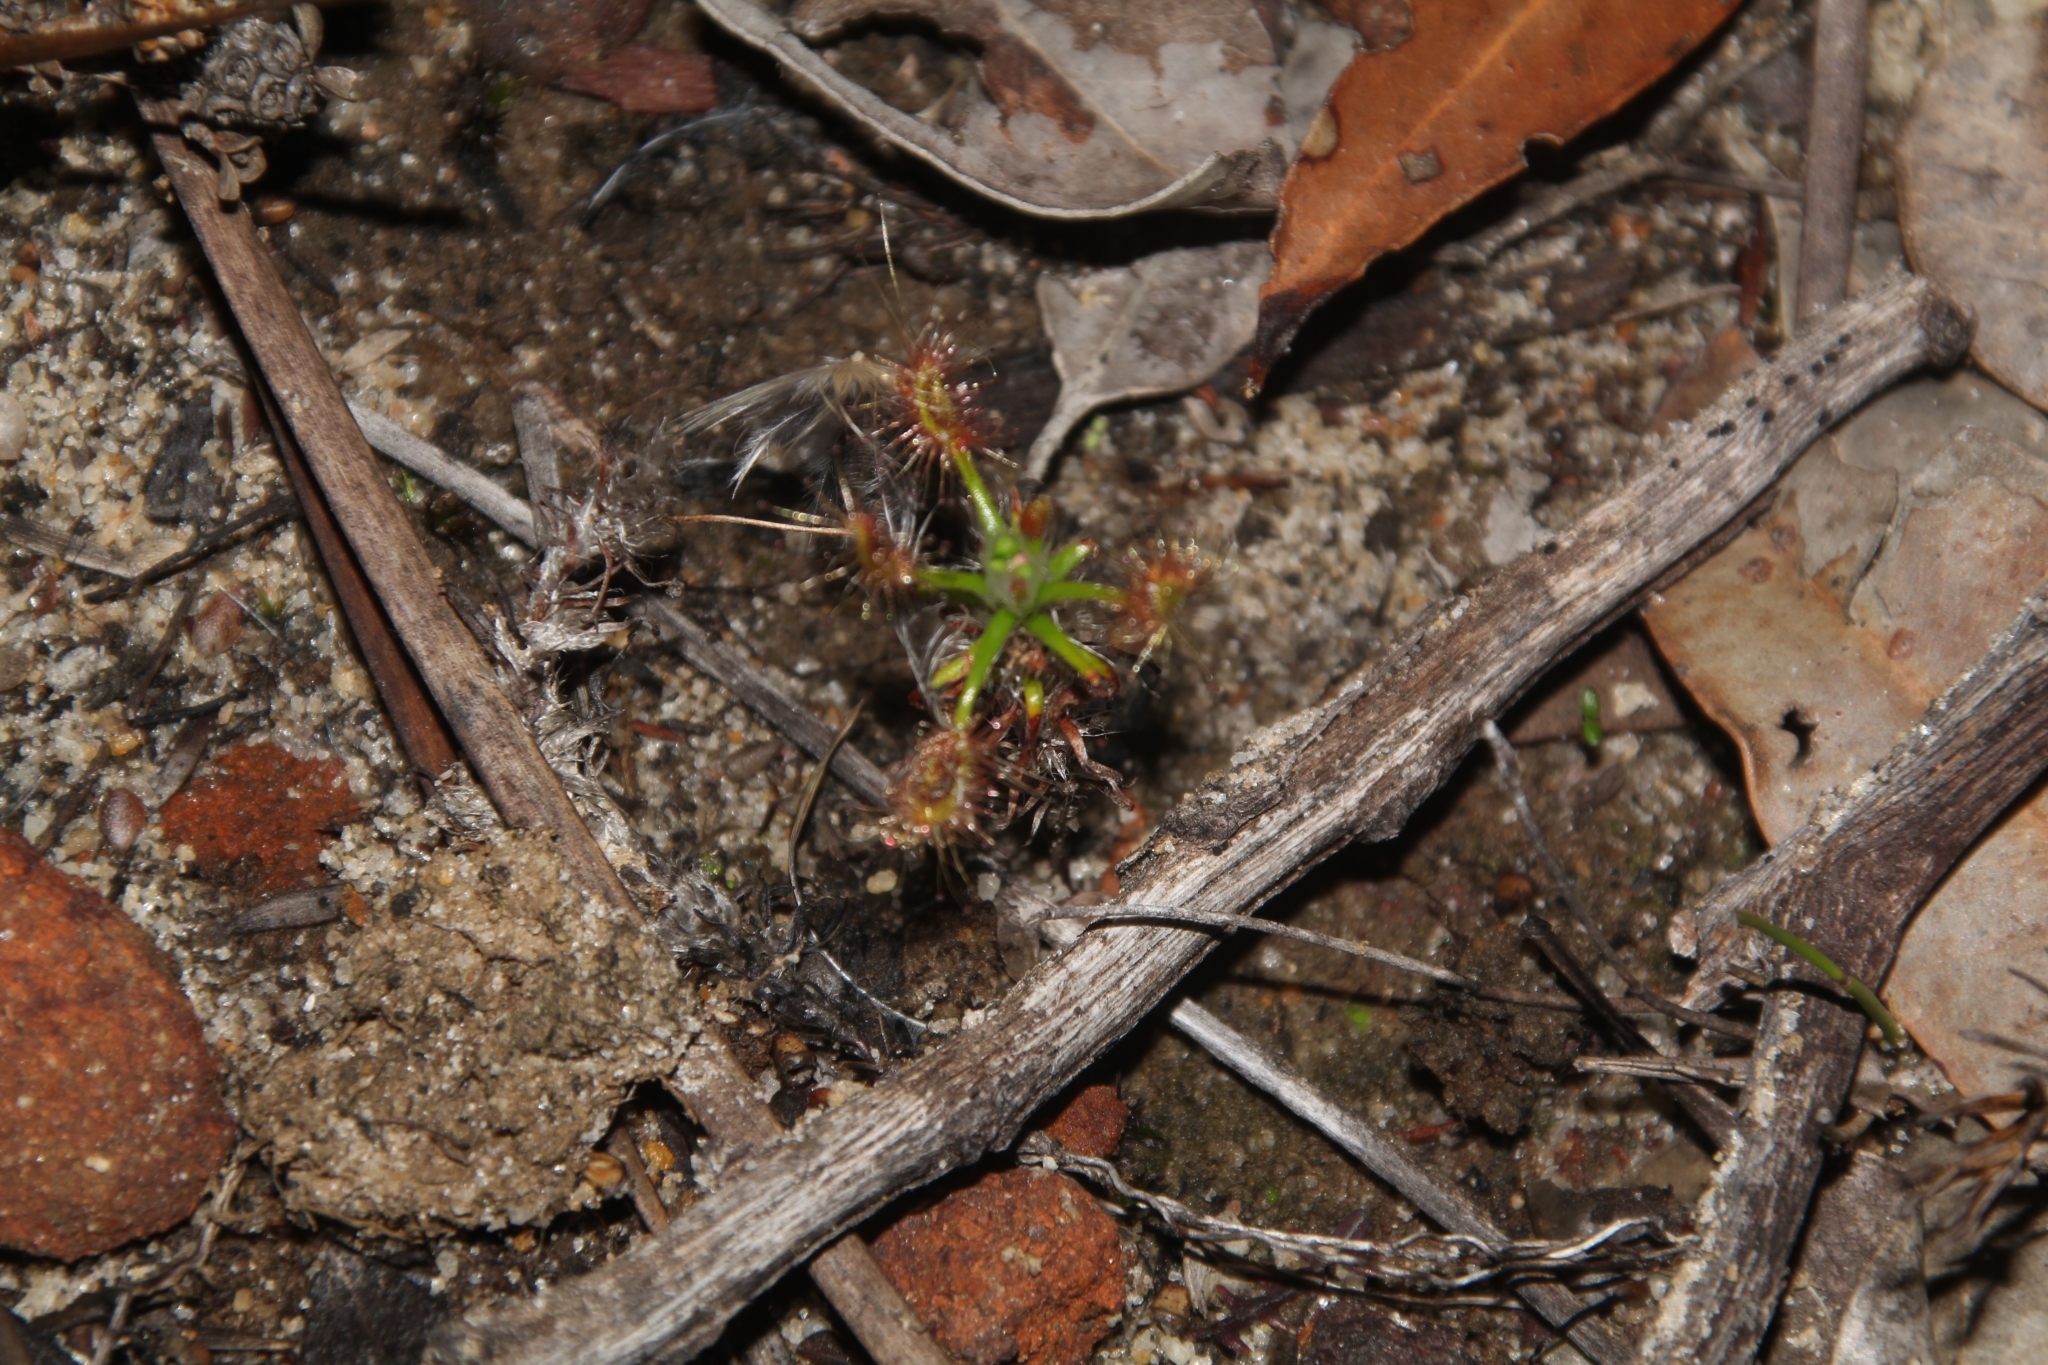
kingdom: Plantae
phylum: Tracheophyta
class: Magnoliopsida
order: Caryophyllales
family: Droseraceae
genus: Drosera
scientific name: Drosera scorpioides
